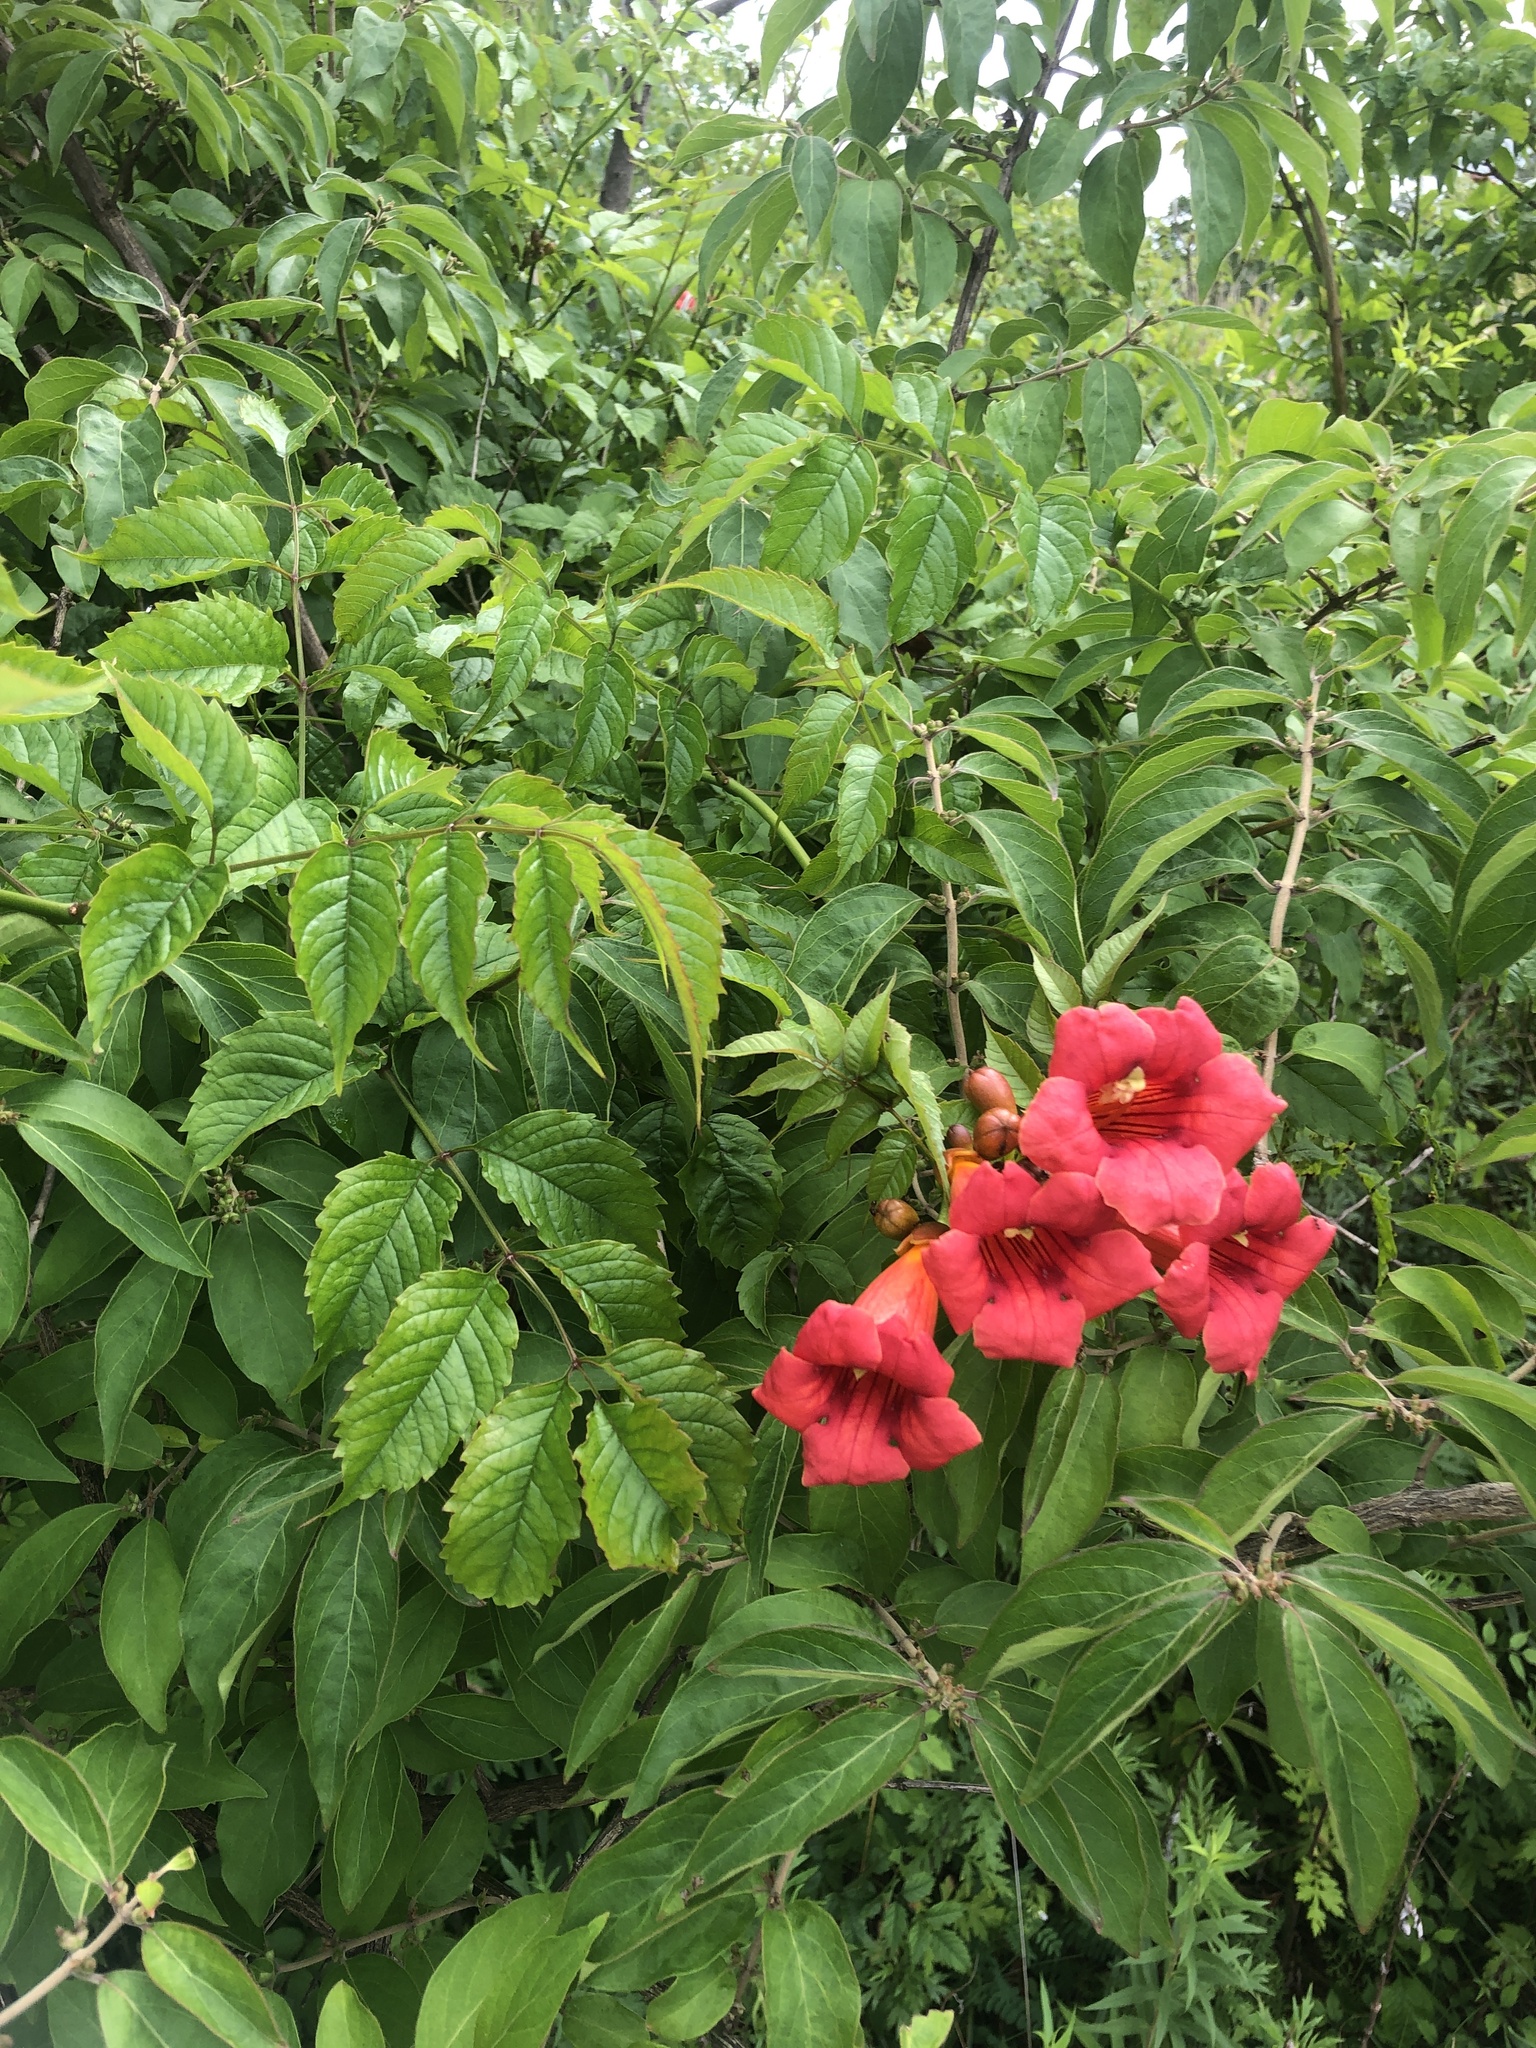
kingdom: Plantae
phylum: Tracheophyta
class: Magnoliopsida
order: Lamiales
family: Bignoniaceae
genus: Campsis
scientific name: Campsis radicans
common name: Trumpet-creeper
